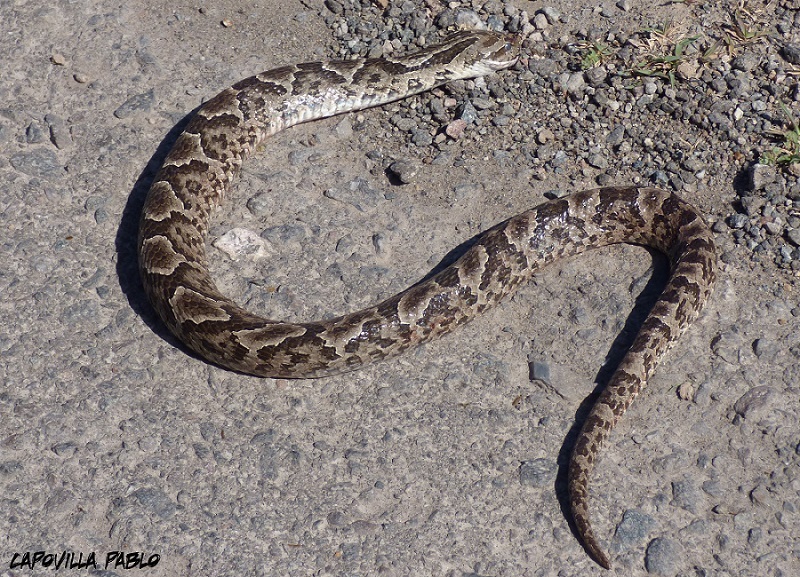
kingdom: Animalia
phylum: Chordata
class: Squamata
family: Colubridae
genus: Xenodon
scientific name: Xenodon merremii
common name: Wagler's snake
